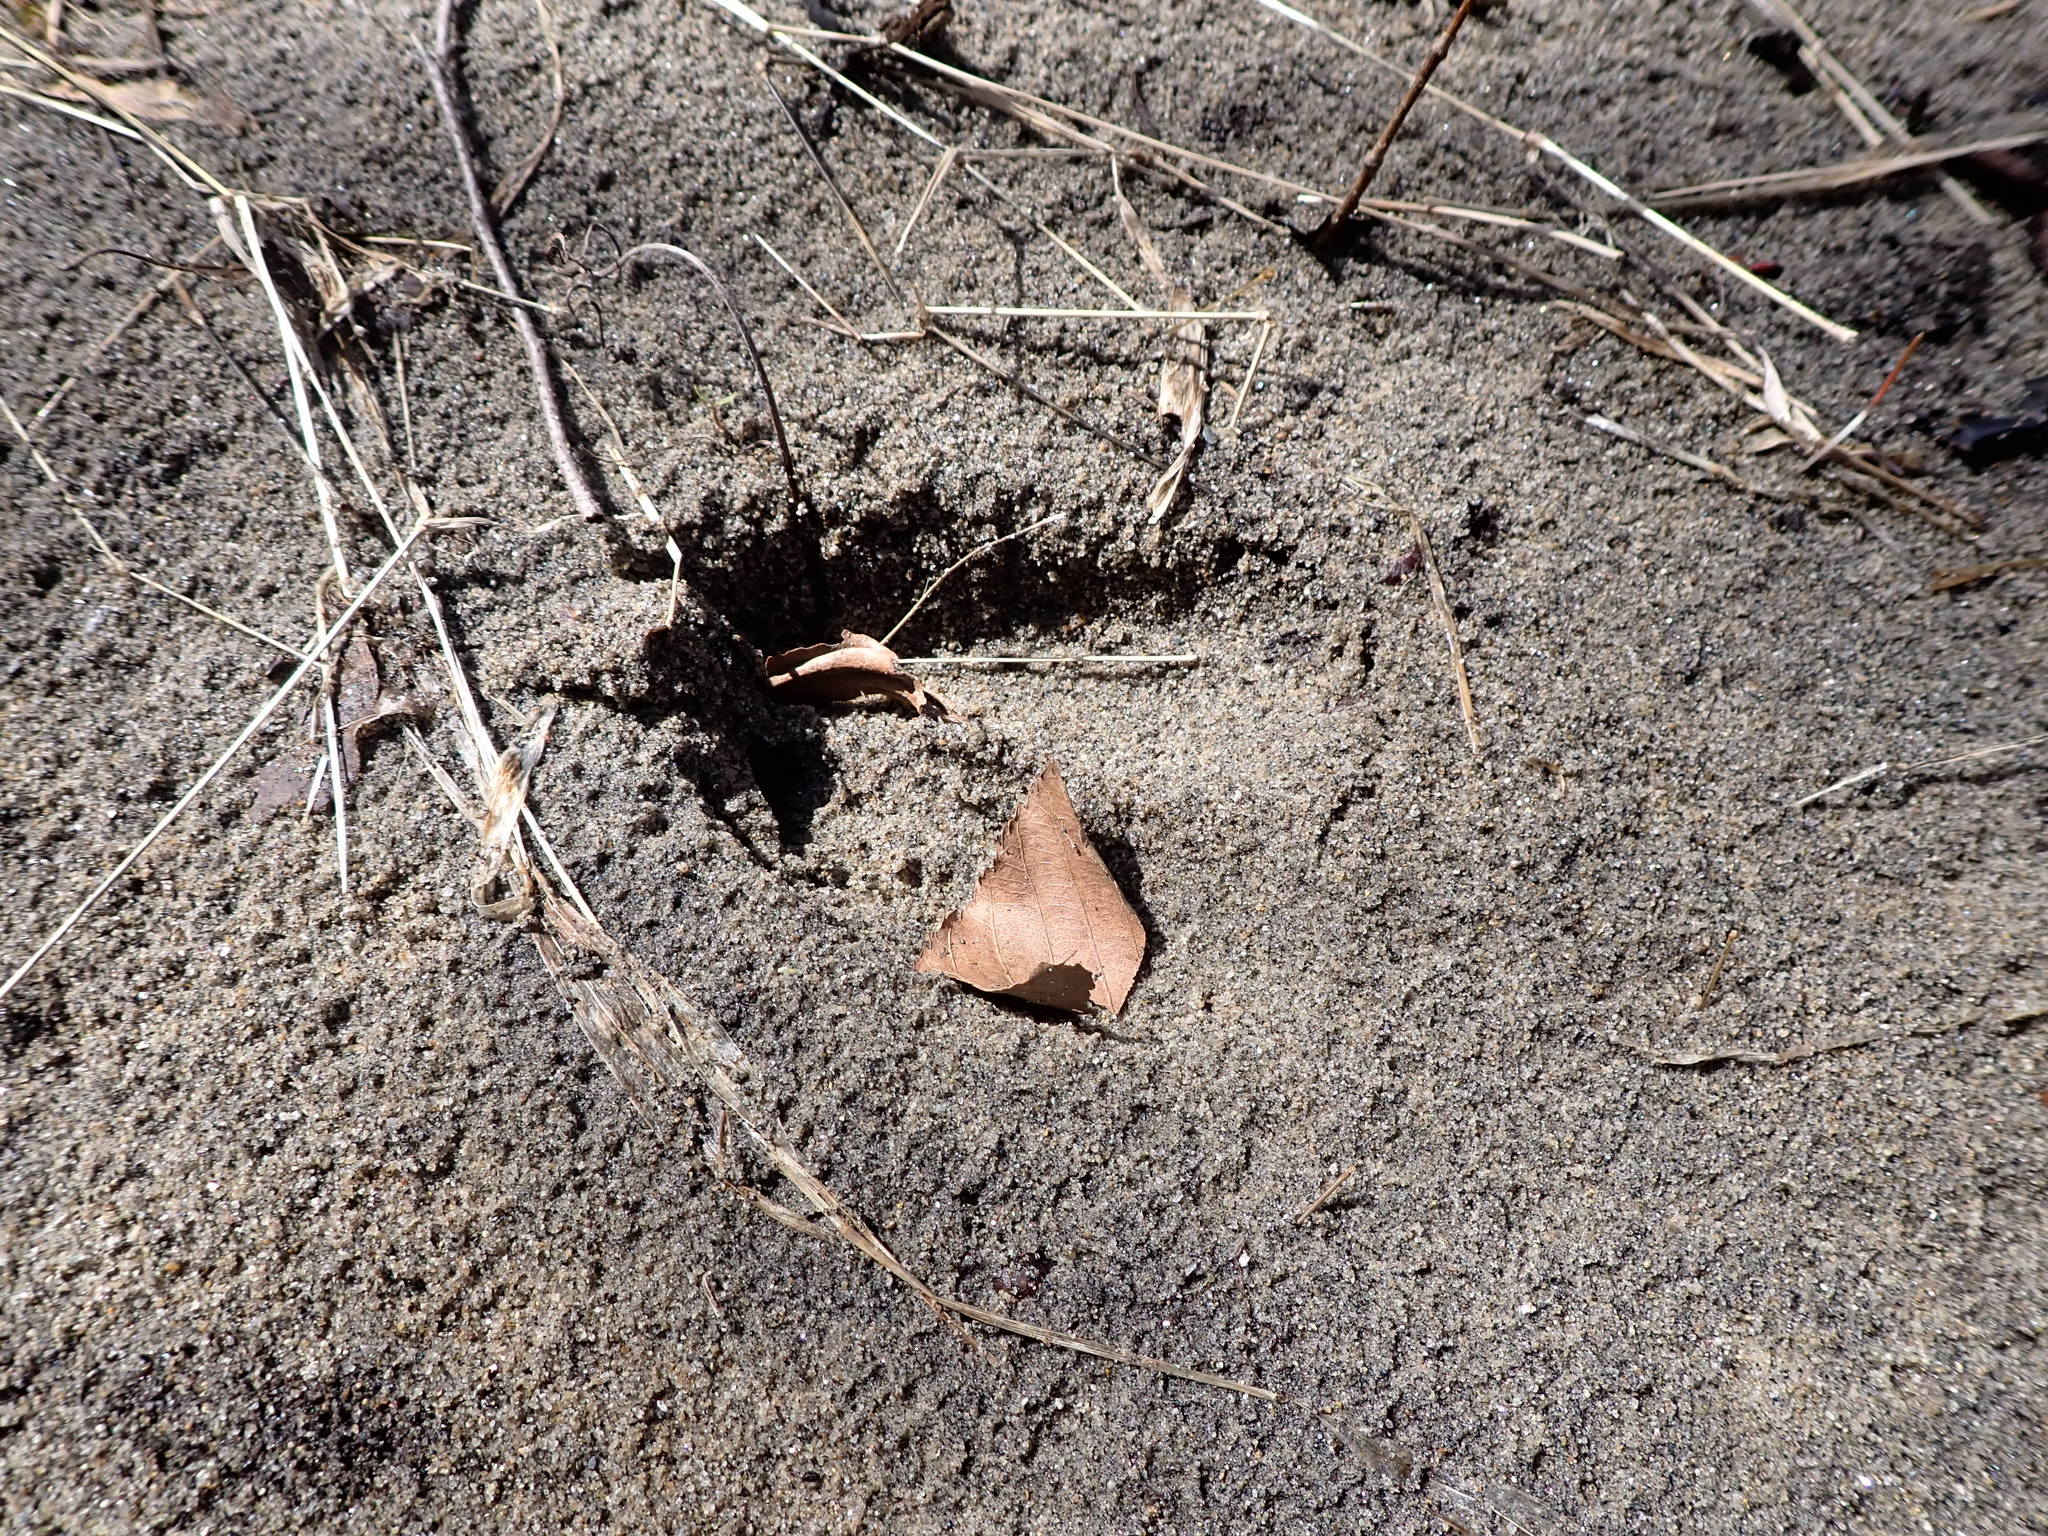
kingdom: Animalia
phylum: Chordata
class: Mammalia
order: Artiodactyla
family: Cervidae
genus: Odocoileus
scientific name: Odocoileus virginianus
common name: White-tailed deer
